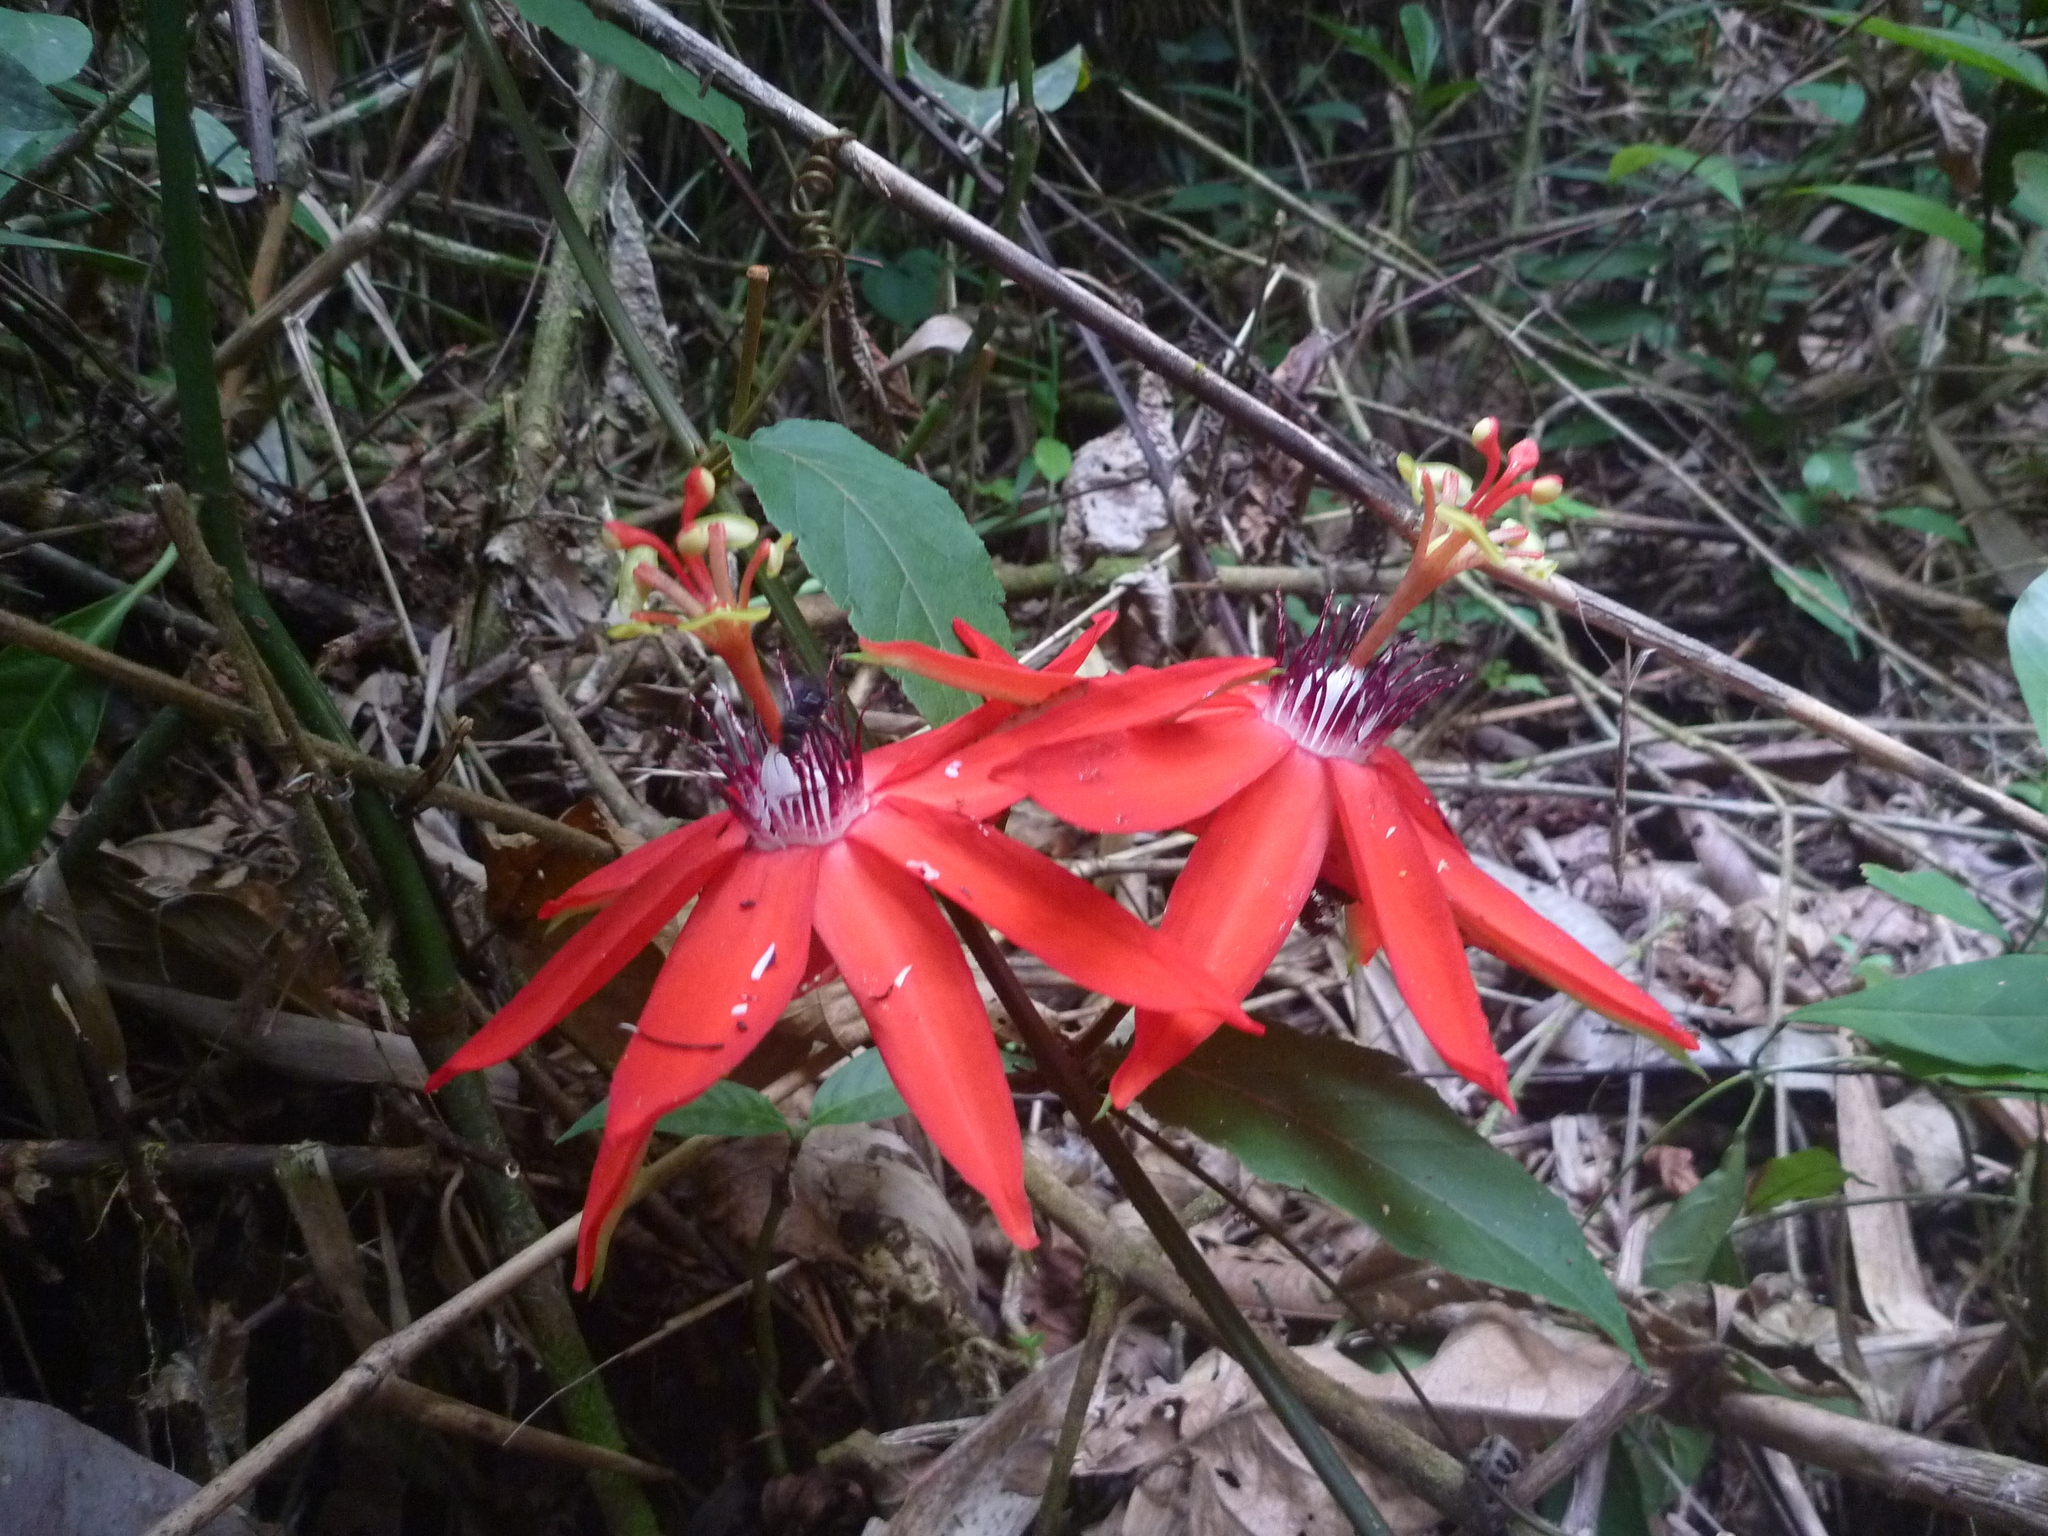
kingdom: Plantae
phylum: Tracheophyta
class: Magnoliopsida
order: Malpighiales
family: Passifloraceae
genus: Passiflora
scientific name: Passiflora miniata
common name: Red granadilla
